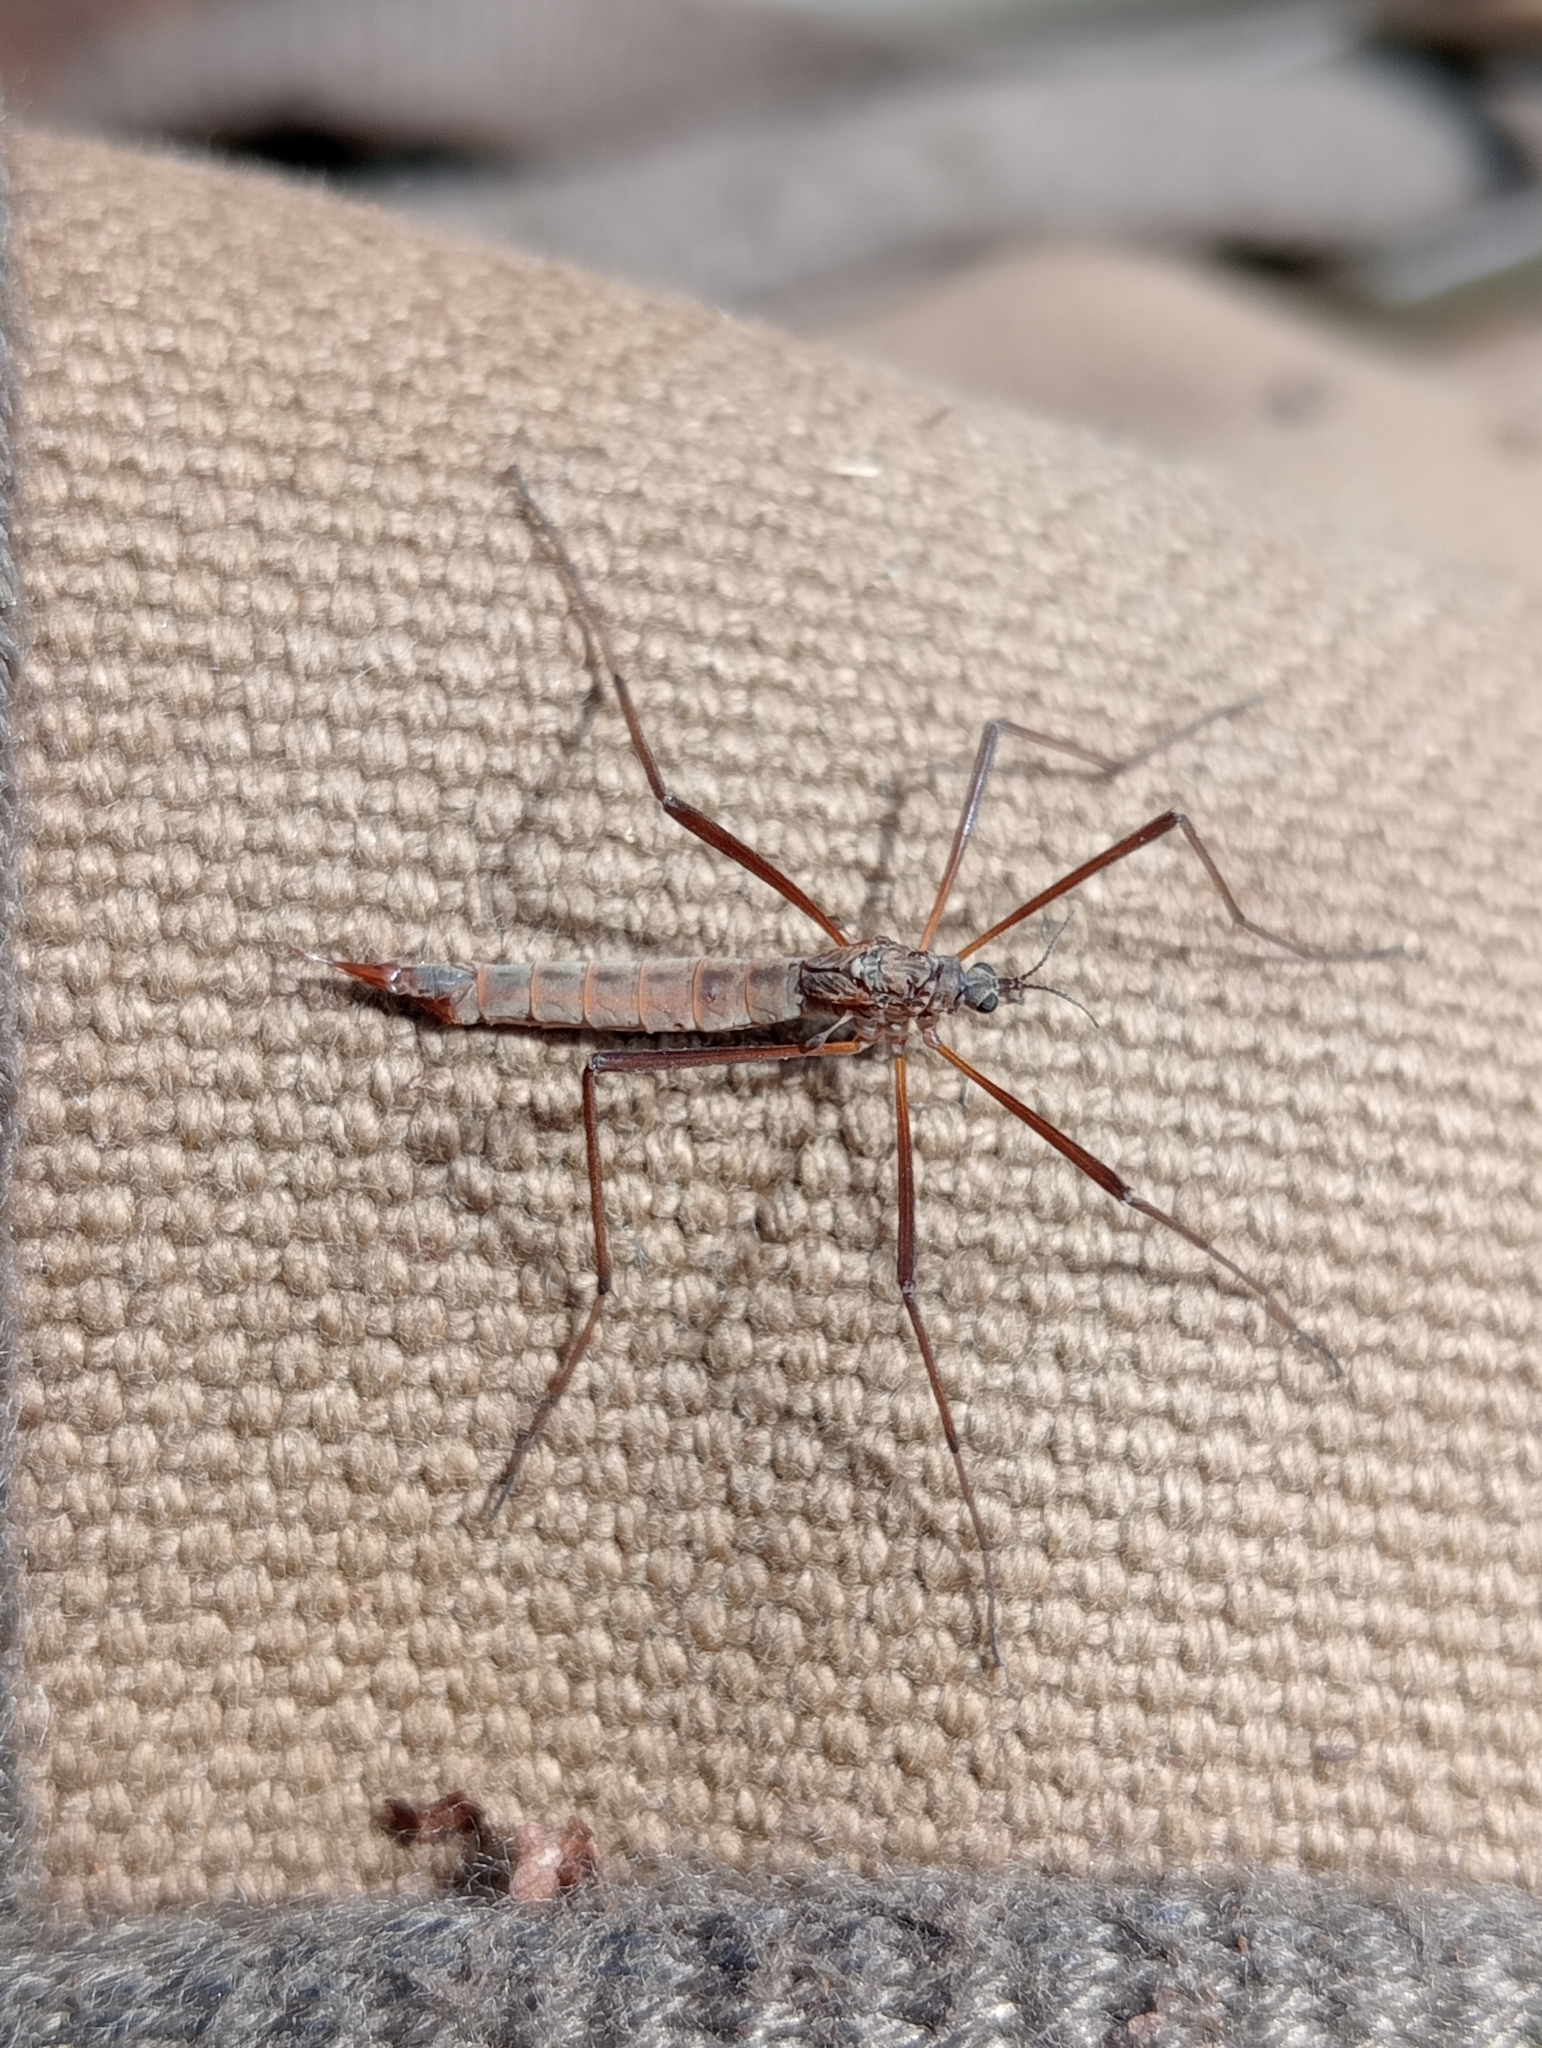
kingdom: Animalia
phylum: Arthropoda
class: Insecta
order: Diptera
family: Limoniidae
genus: Gynoplistia
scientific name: Gynoplistia pedestris
